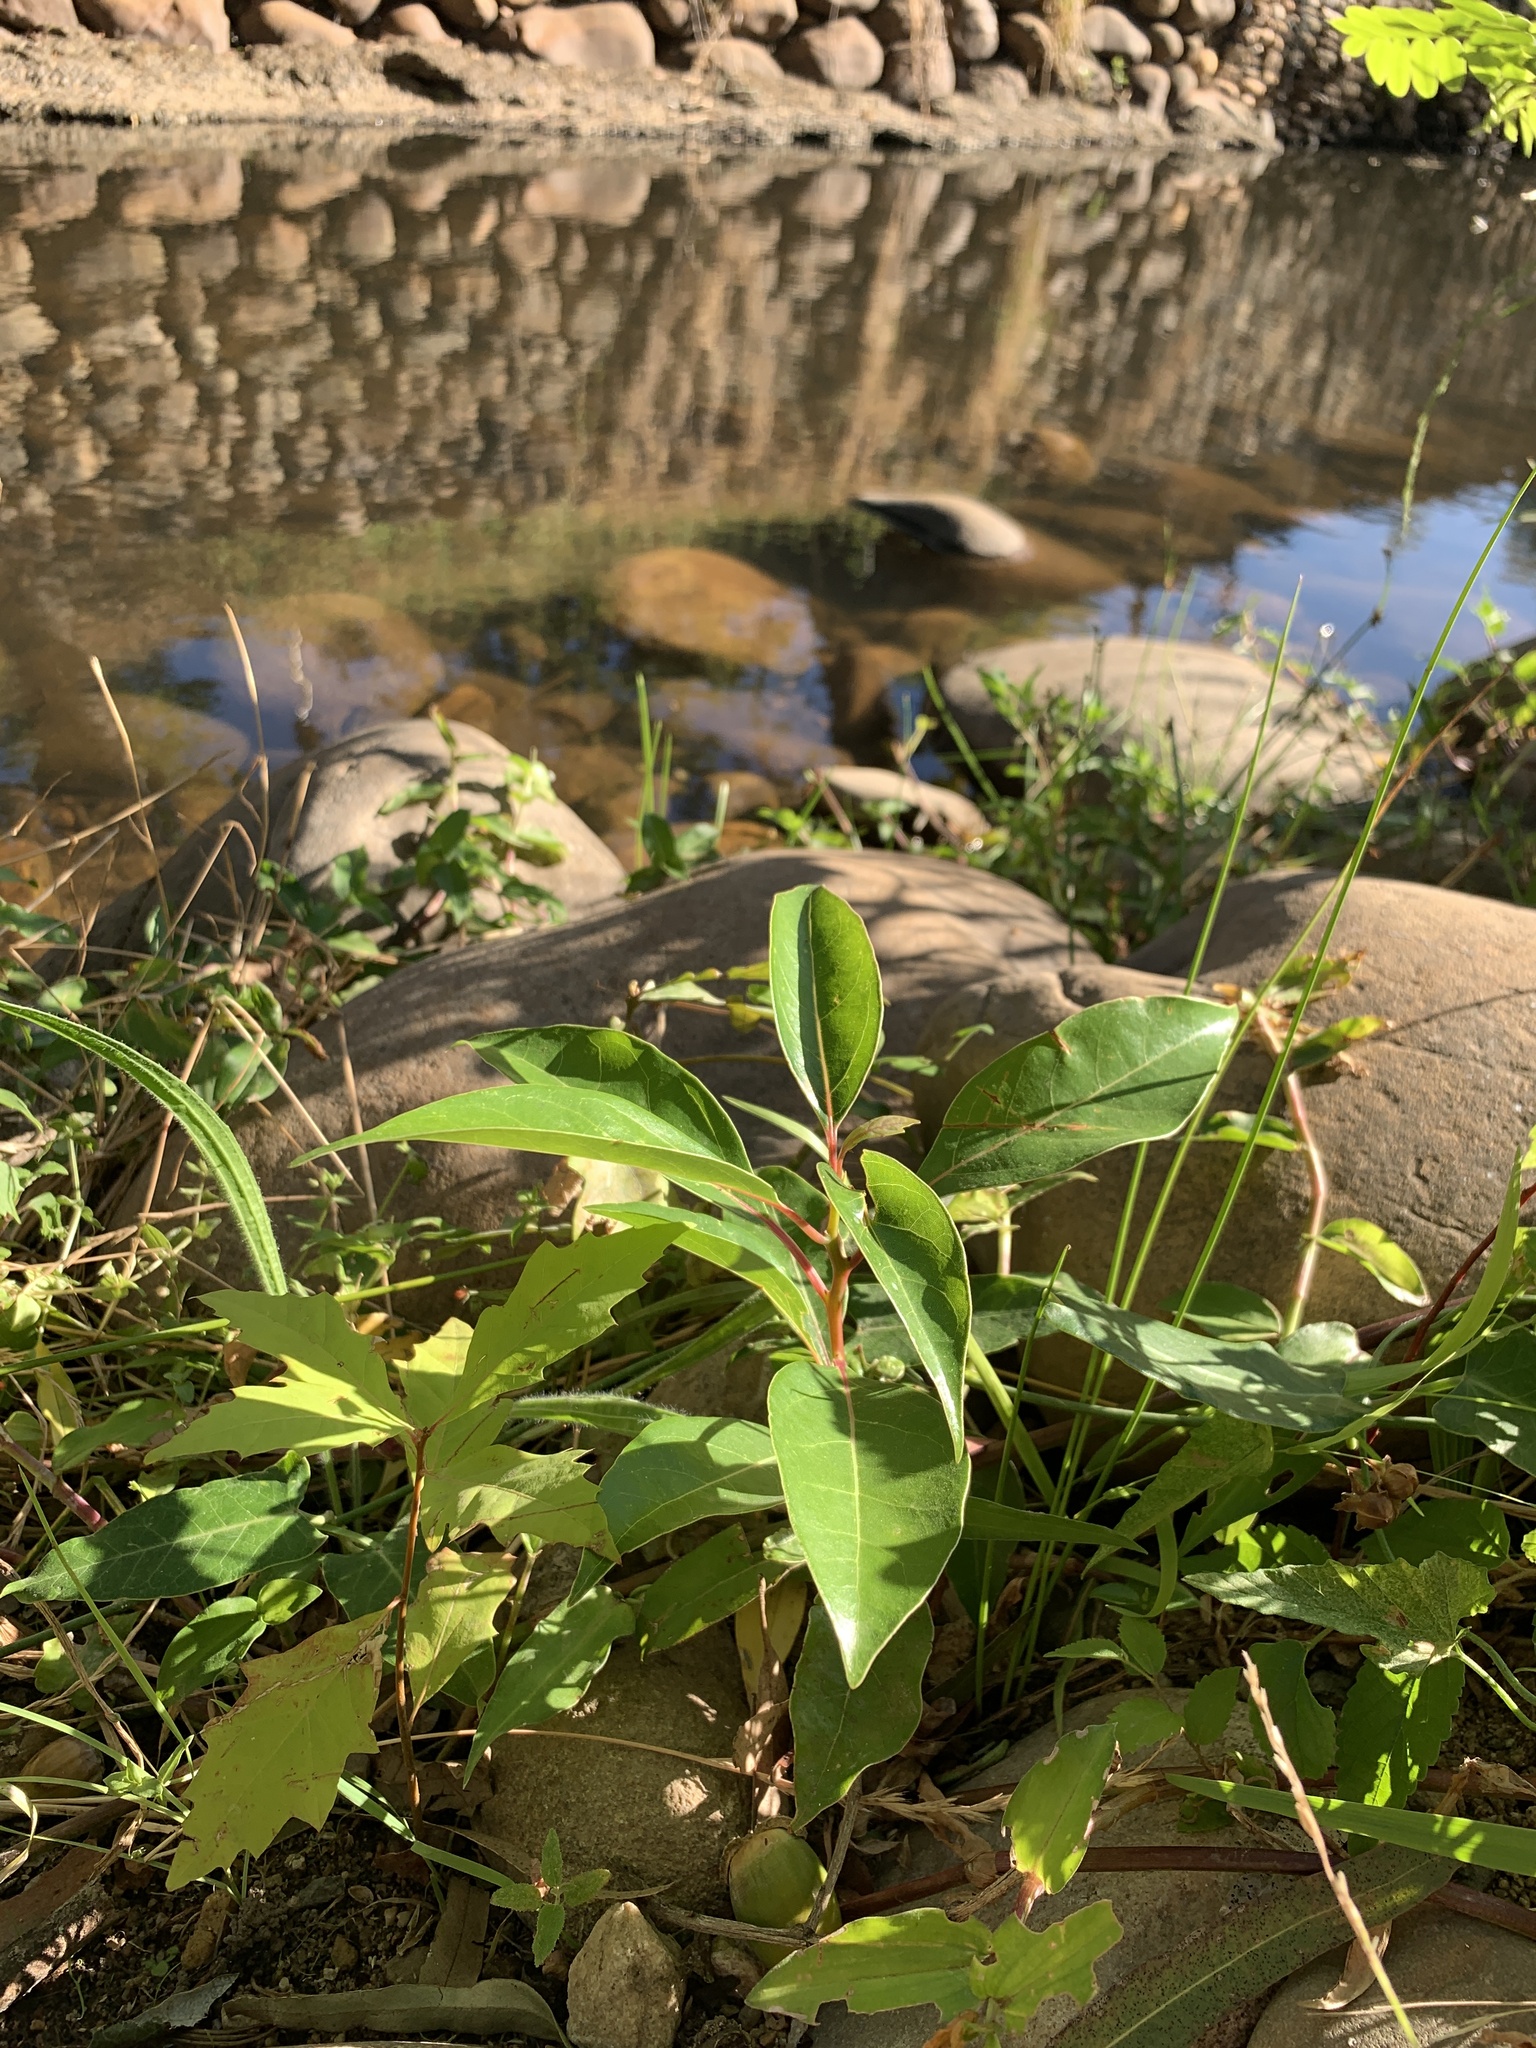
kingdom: Plantae
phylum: Tracheophyta
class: Magnoliopsida
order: Laurales
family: Lauraceae
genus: Cinnamomum
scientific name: Cinnamomum camphora
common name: Camphortree
